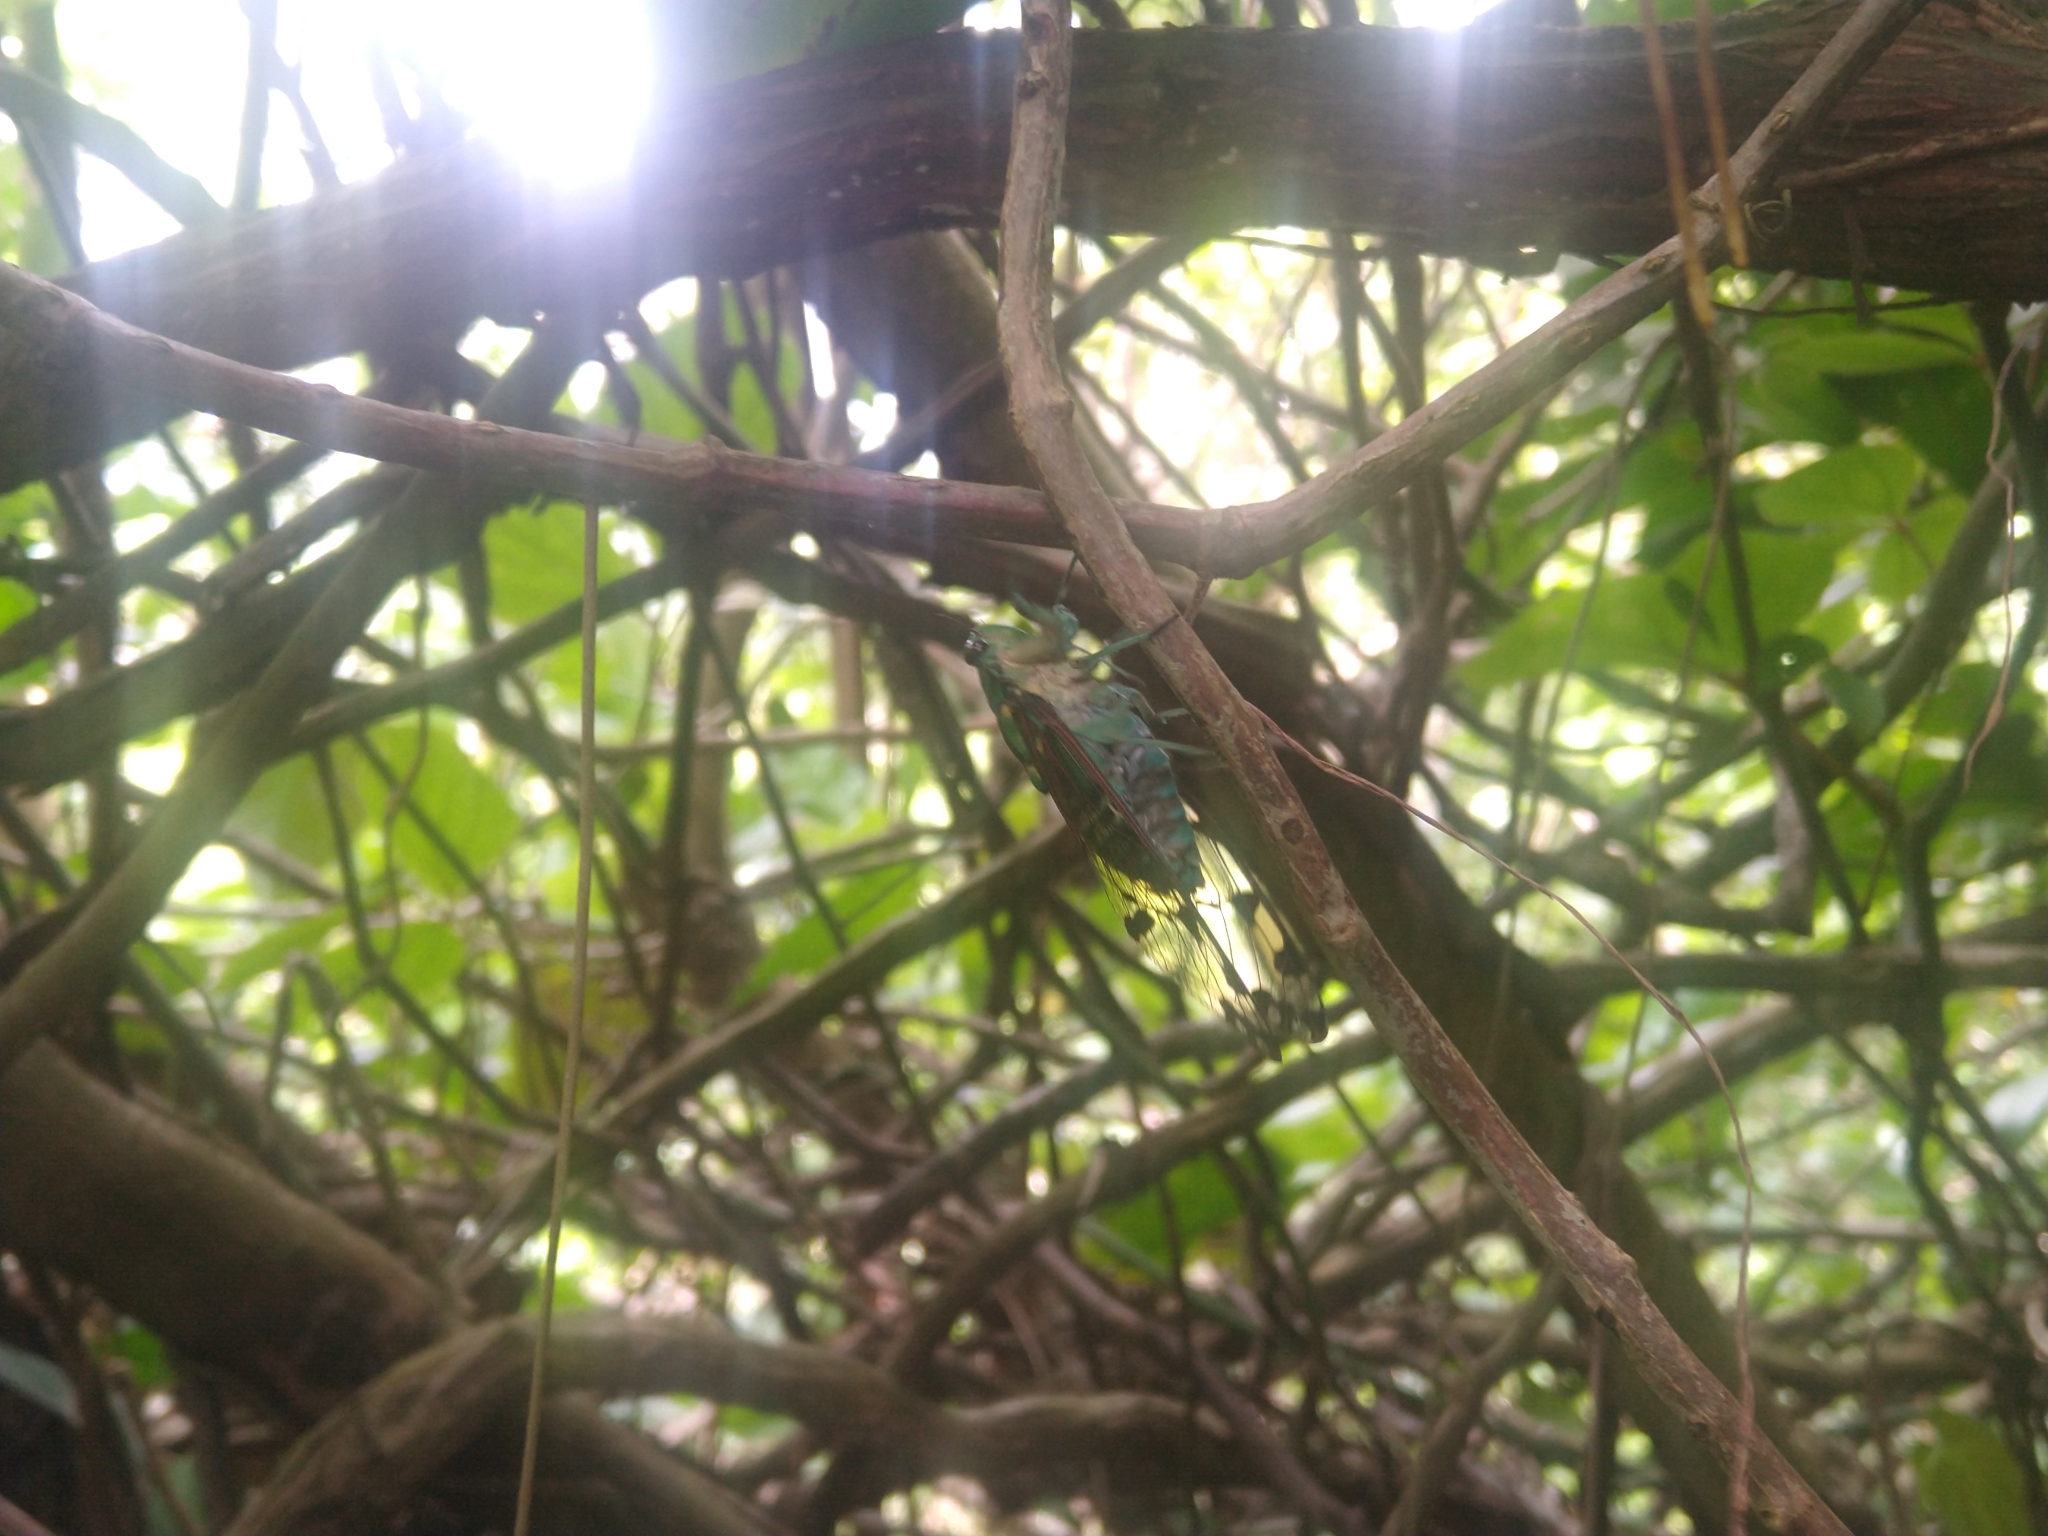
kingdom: Animalia
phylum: Arthropoda
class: Insecta
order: Hemiptera
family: Cicadidae
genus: Zammara
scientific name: Zammara smaragdina
